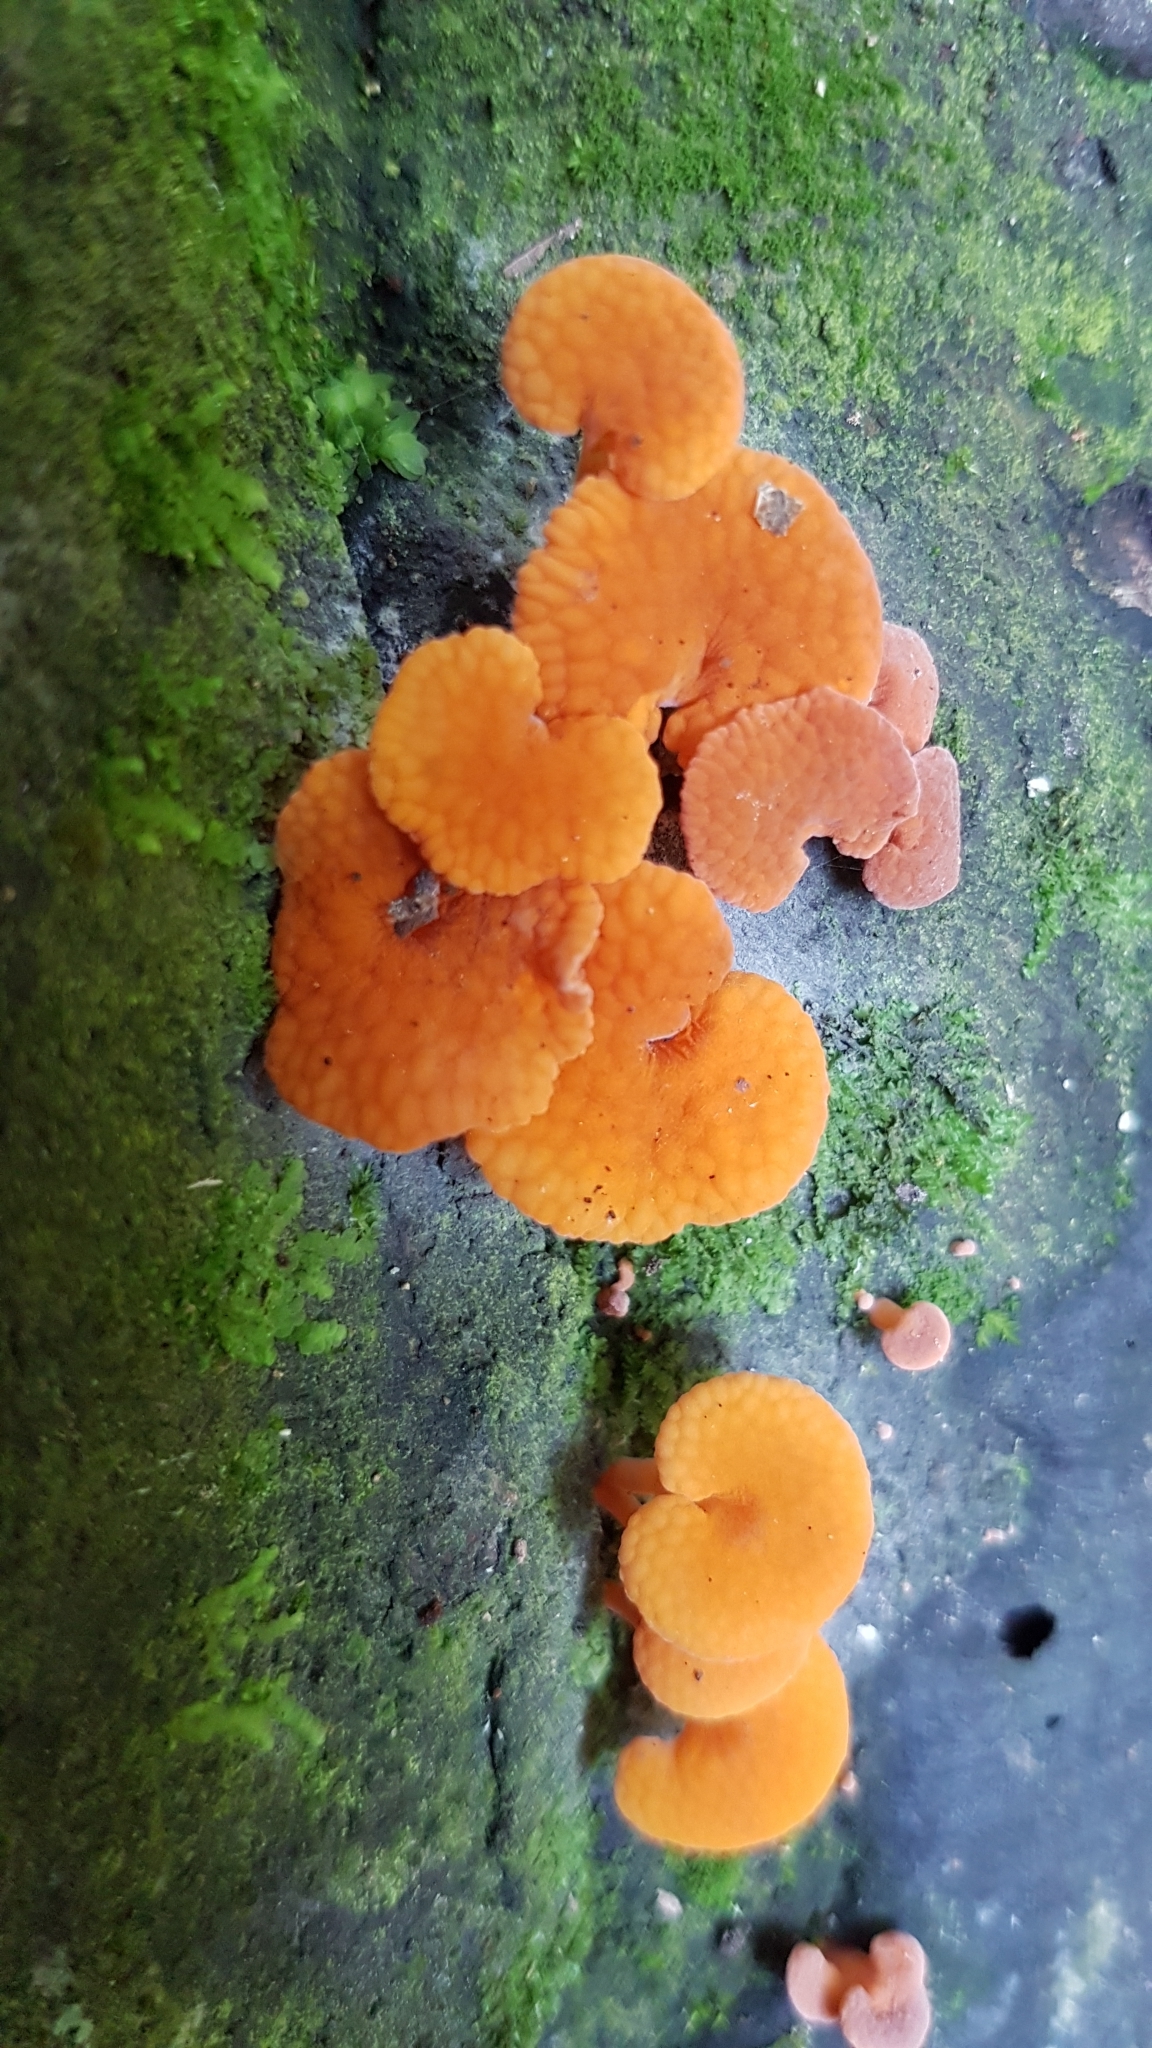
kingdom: Fungi
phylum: Basidiomycota
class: Agaricomycetes
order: Agaricales
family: Mycenaceae
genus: Favolaschia
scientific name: Favolaschia claudopus
